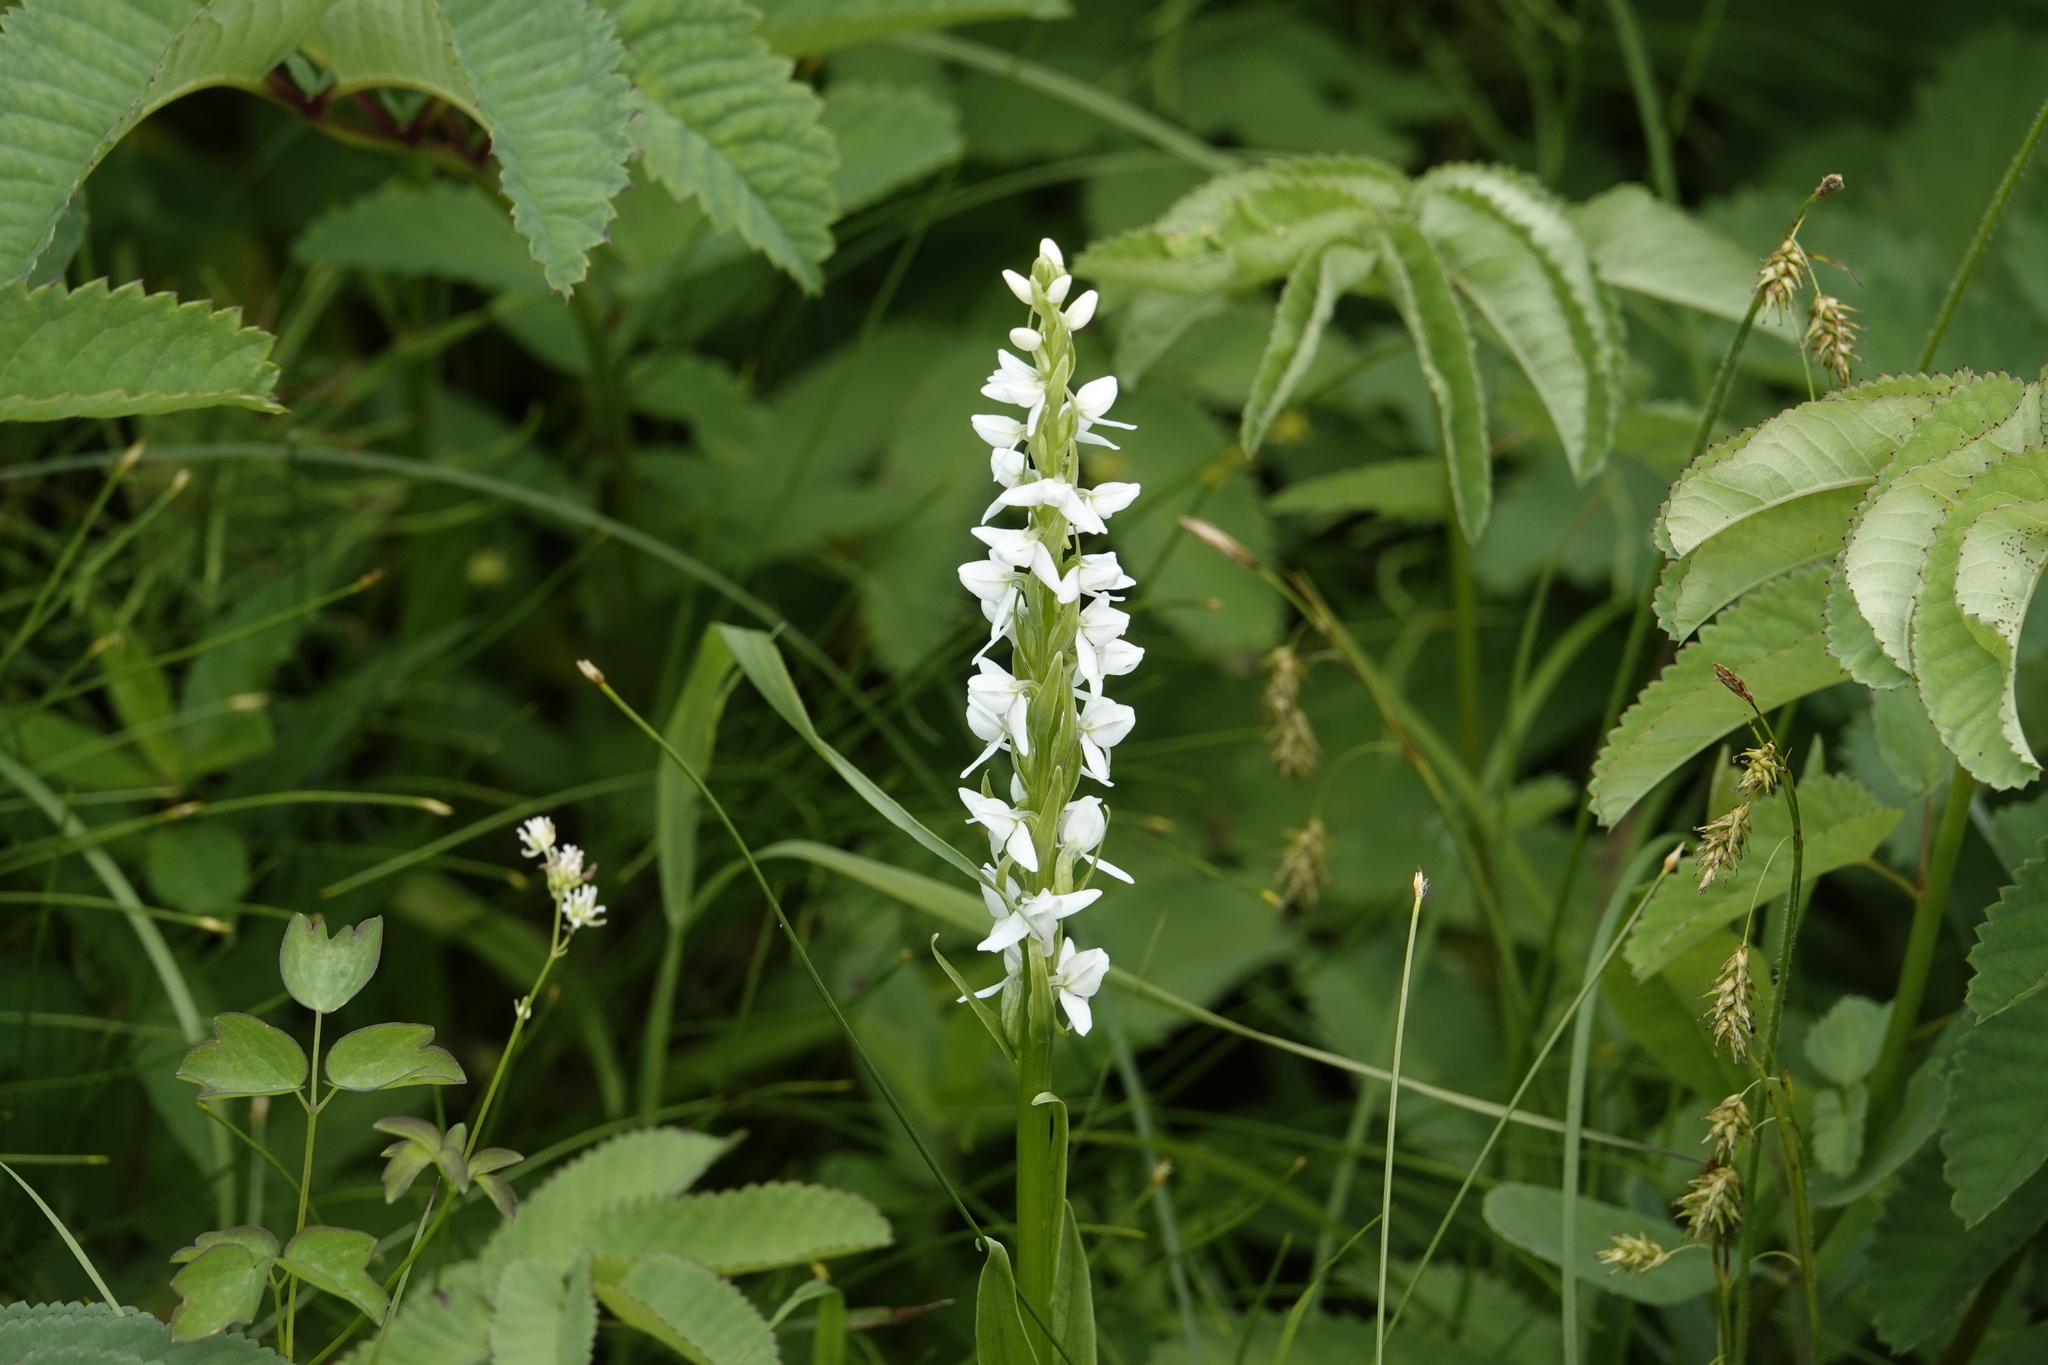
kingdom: Plantae
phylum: Tracheophyta
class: Liliopsida
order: Asparagales
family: Orchidaceae
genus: Platanthera
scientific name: Platanthera dilatata
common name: Bog candles
